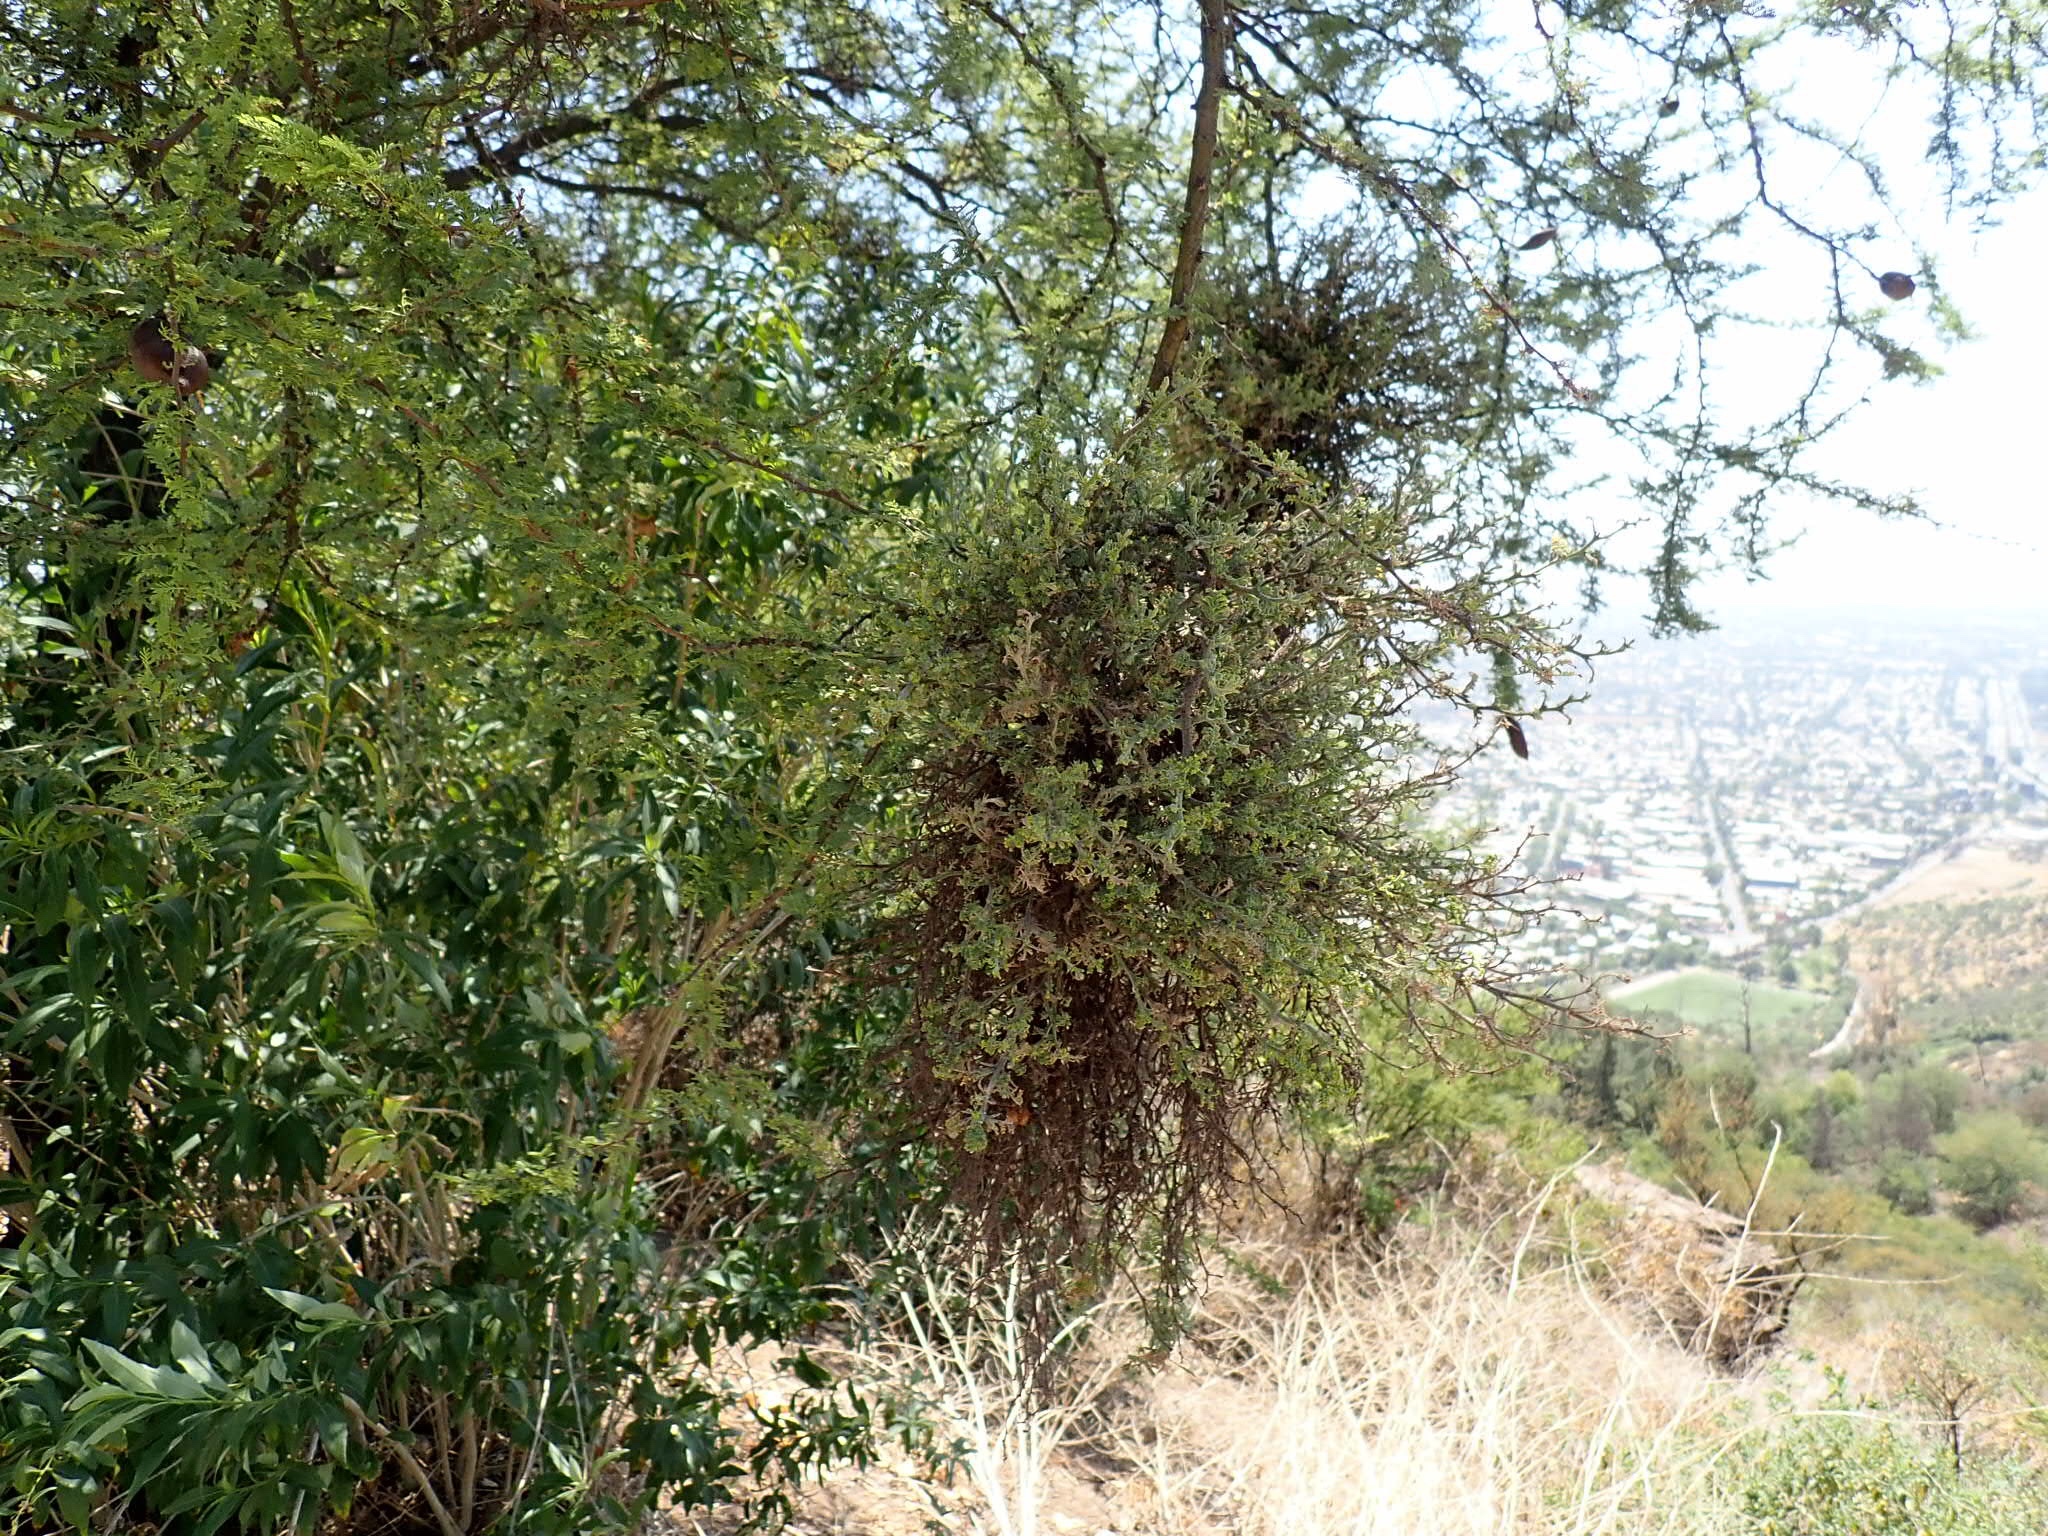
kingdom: Plantae
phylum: Tracheophyta
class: Magnoliopsida
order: Fabales
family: Fabaceae
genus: Vachellia
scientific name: Vachellia caven
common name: Roman cassie
